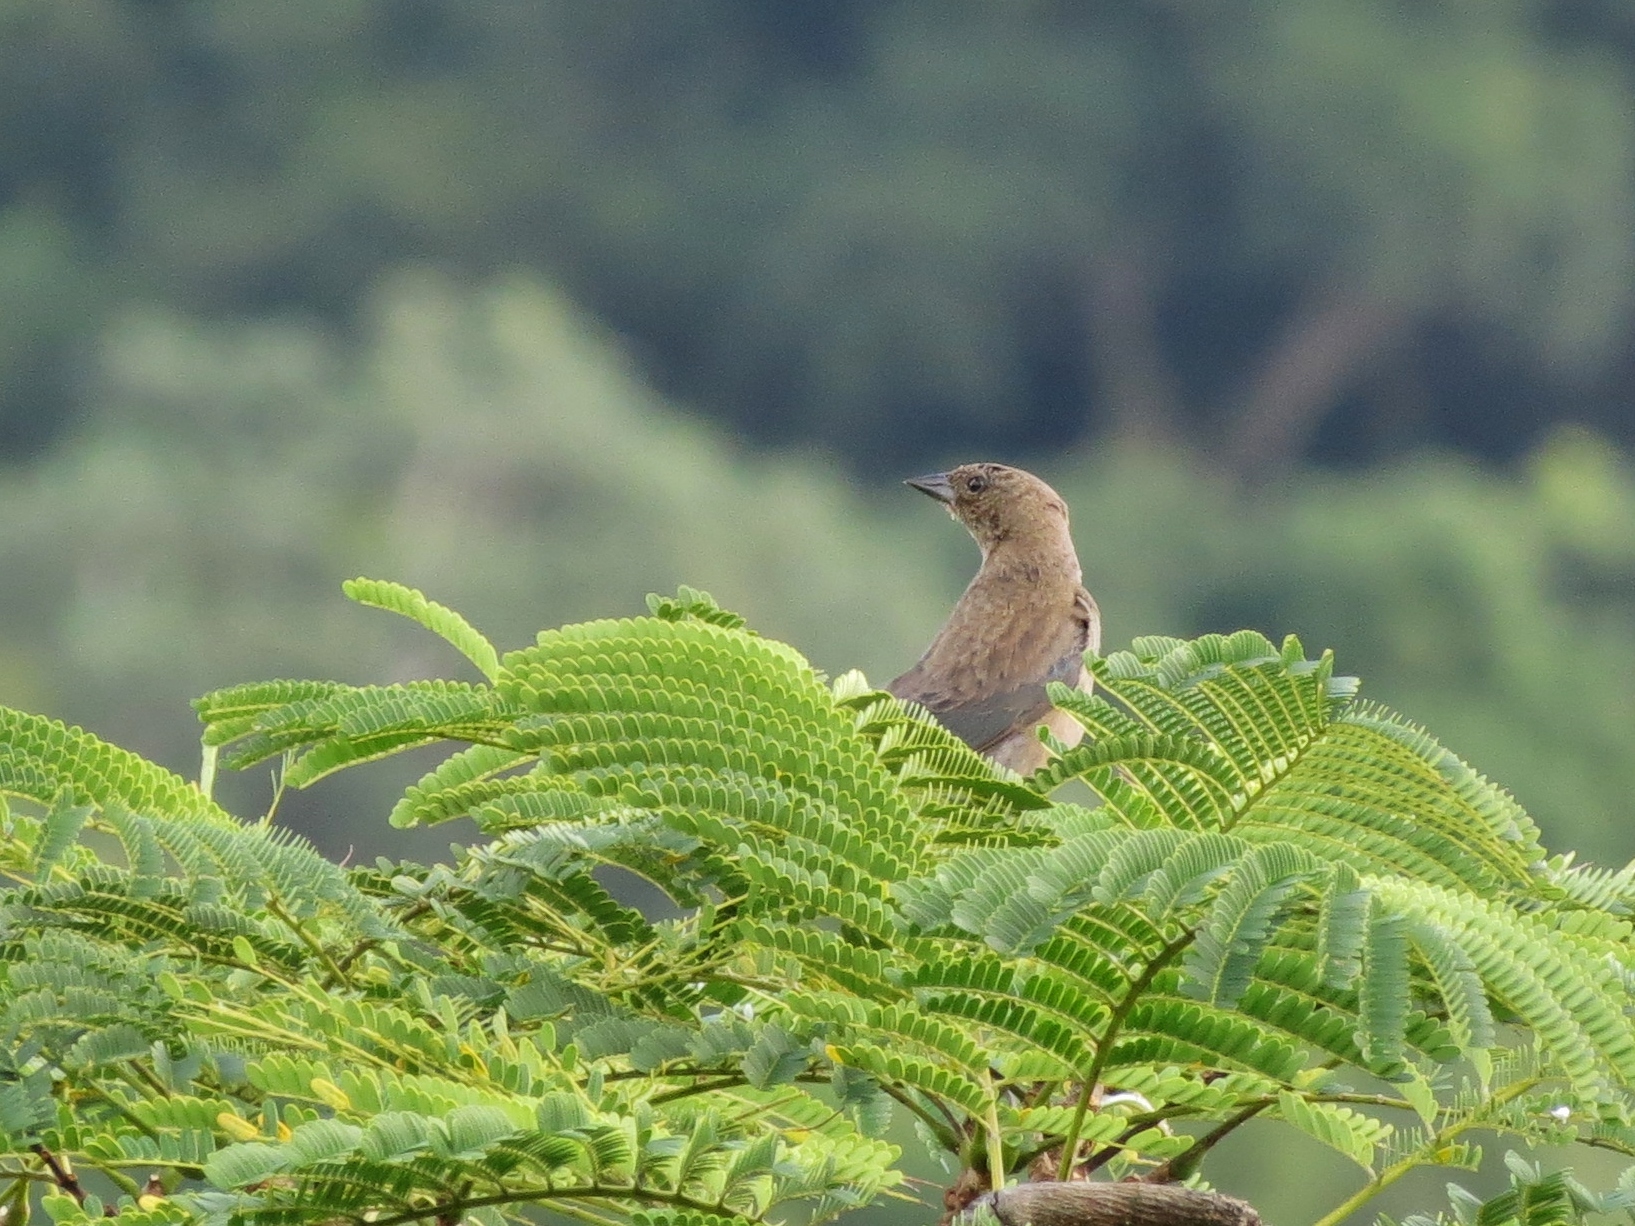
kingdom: Animalia
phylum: Chordata
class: Aves
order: Passeriformes
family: Icteridae
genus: Molothrus
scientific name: Molothrus bonariensis
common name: Shiny cowbird
